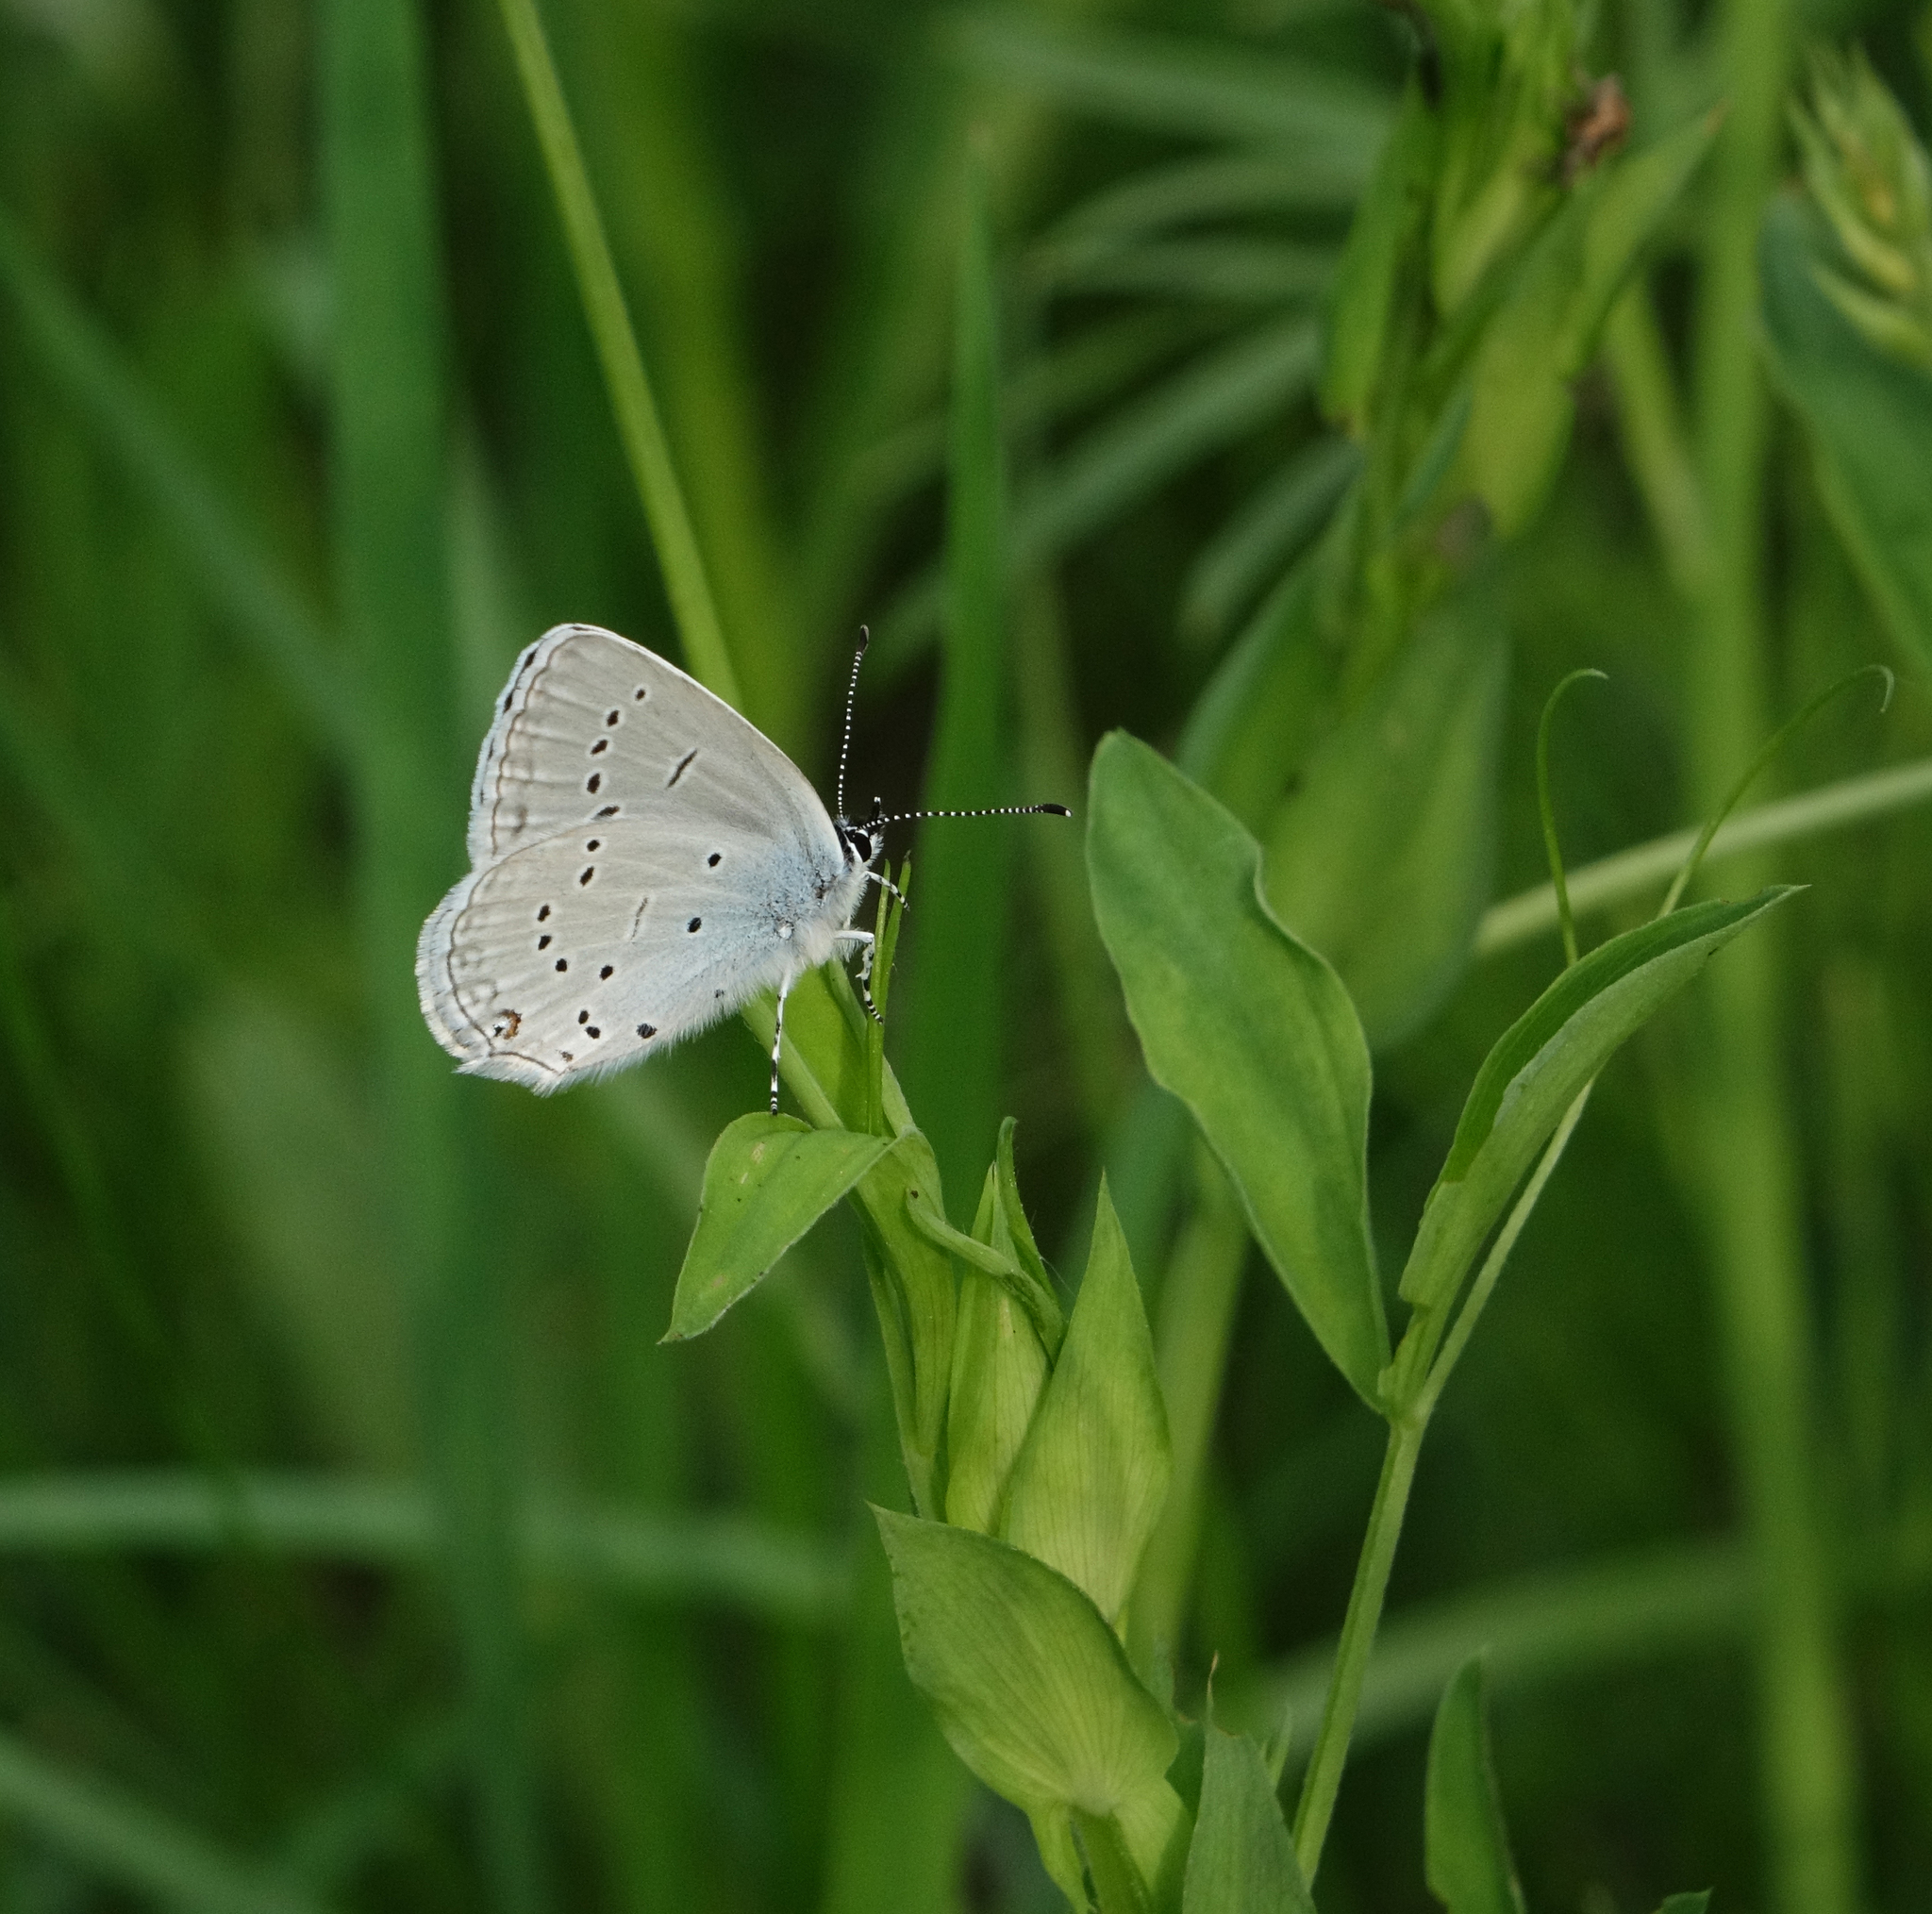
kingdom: Plantae
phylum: Tracheophyta
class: Magnoliopsida
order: Fabales
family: Fabaceae
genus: Lathyrus
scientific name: Lathyrus pratensis
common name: Meadow vetchling
